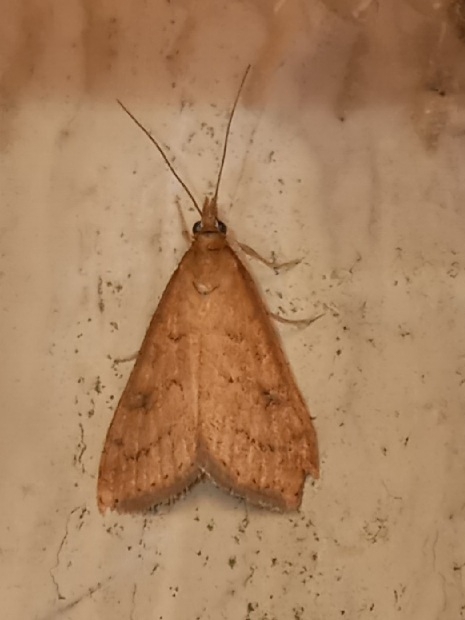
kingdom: Animalia
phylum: Arthropoda
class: Insecta
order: Lepidoptera
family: Crambidae
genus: Udea
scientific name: Udea rubigalis
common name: Celery leaftier moth
